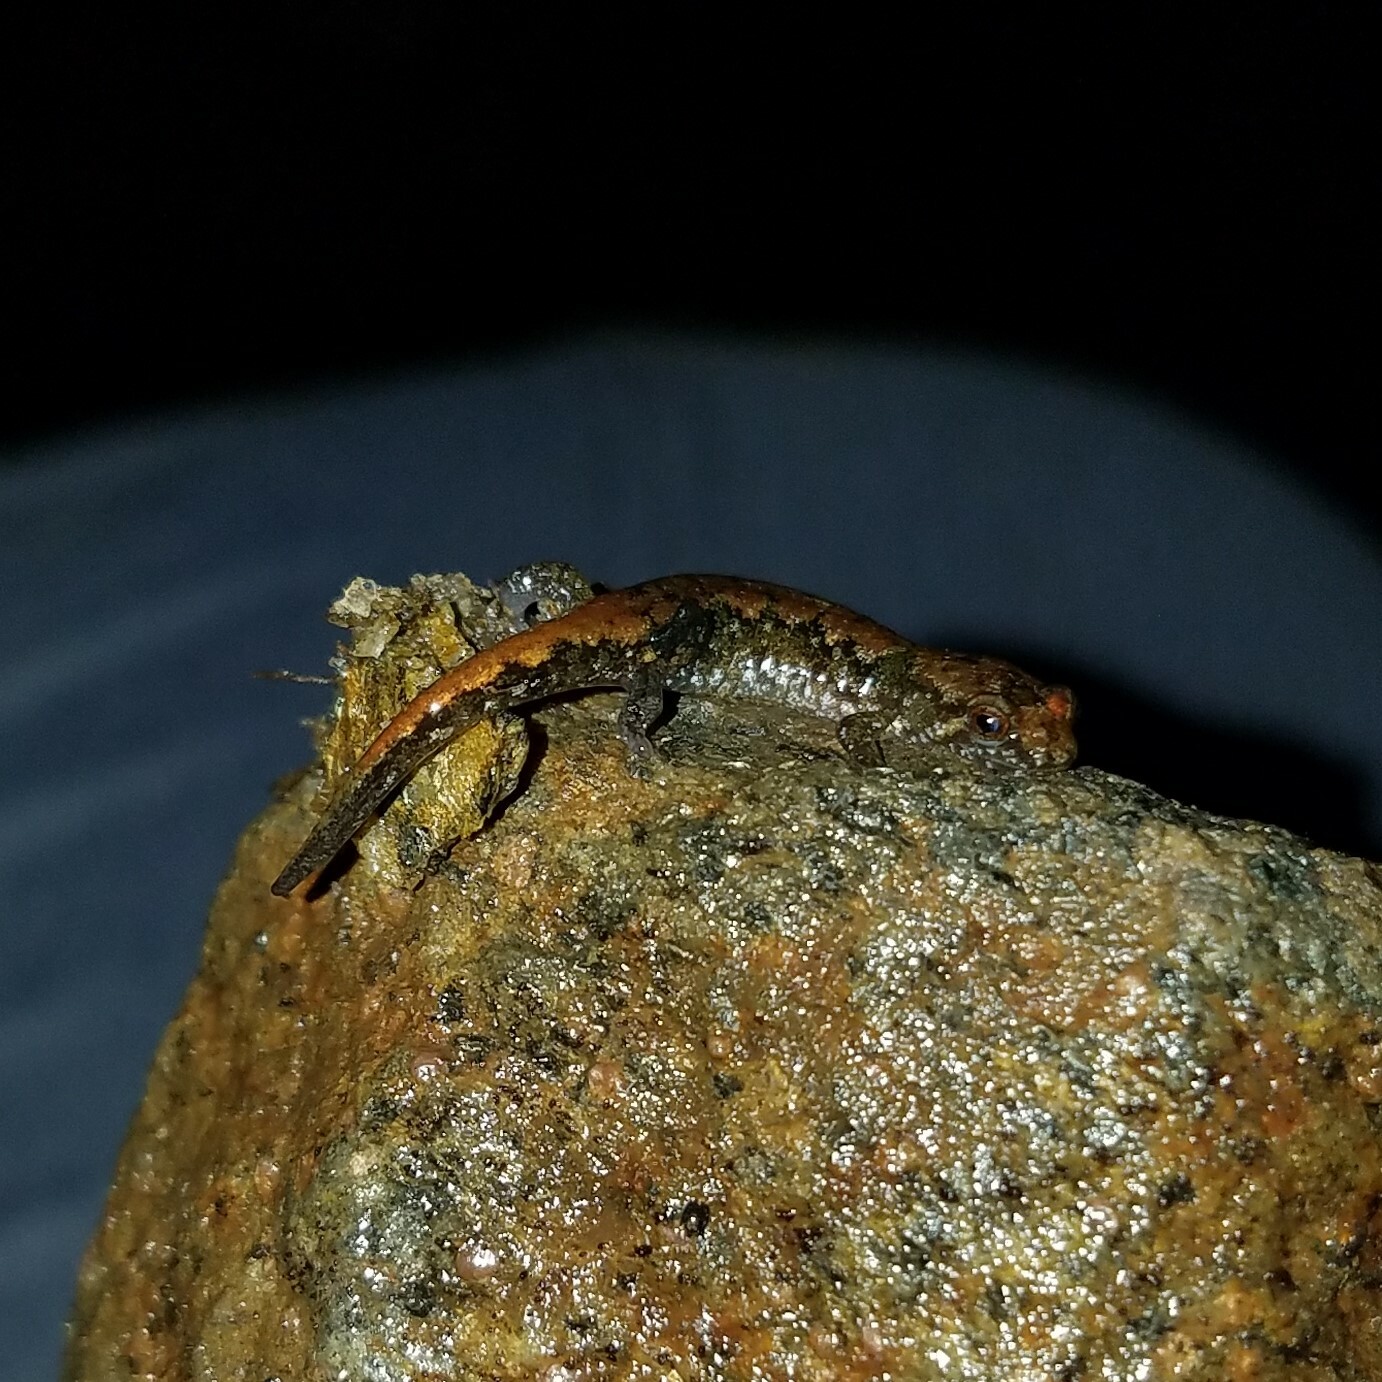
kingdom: Animalia
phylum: Chordata
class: Amphibia
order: Caudata
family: Plethodontidae
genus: Desmognathus
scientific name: Desmognathus aeneus
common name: Seepage salamander
